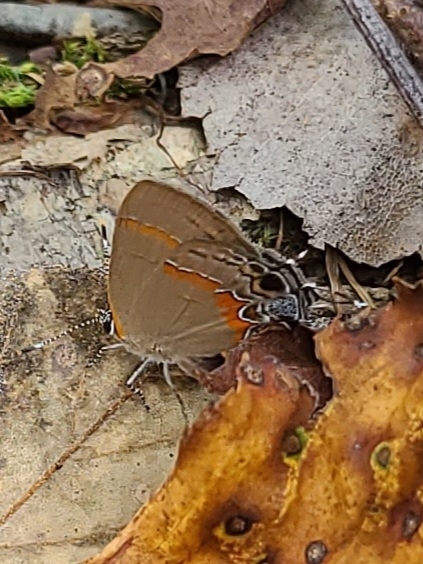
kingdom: Animalia
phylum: Arthropoda
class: Insecta
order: Lepidoptera
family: Lycaenidae
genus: Calycopis
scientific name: Calycopis cecrops
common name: Red-banded hairstreak
